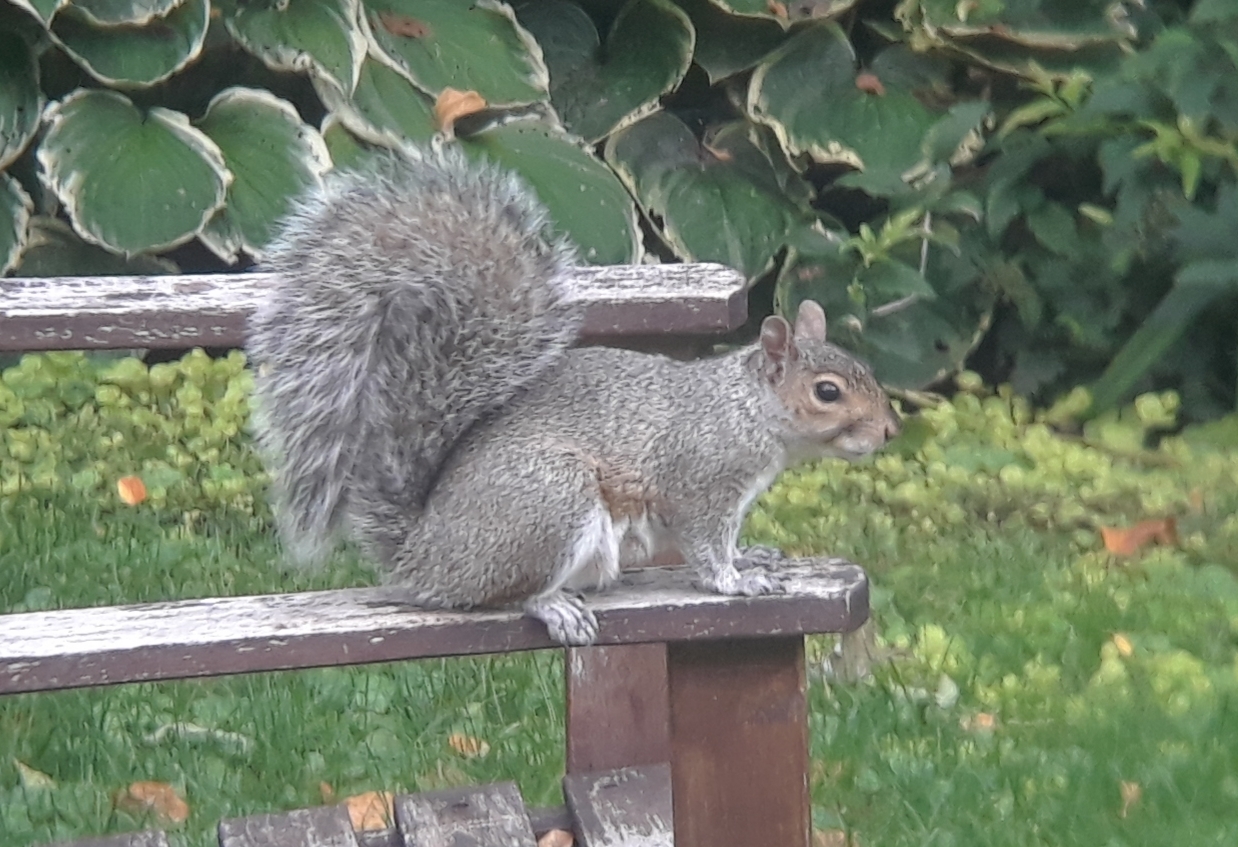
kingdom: Animalia
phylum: Chordata
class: Mammalia
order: Rodentia
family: Sciuridae
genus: Sciurus
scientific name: Sciurus carolinensis
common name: Eastern gray squirrel
